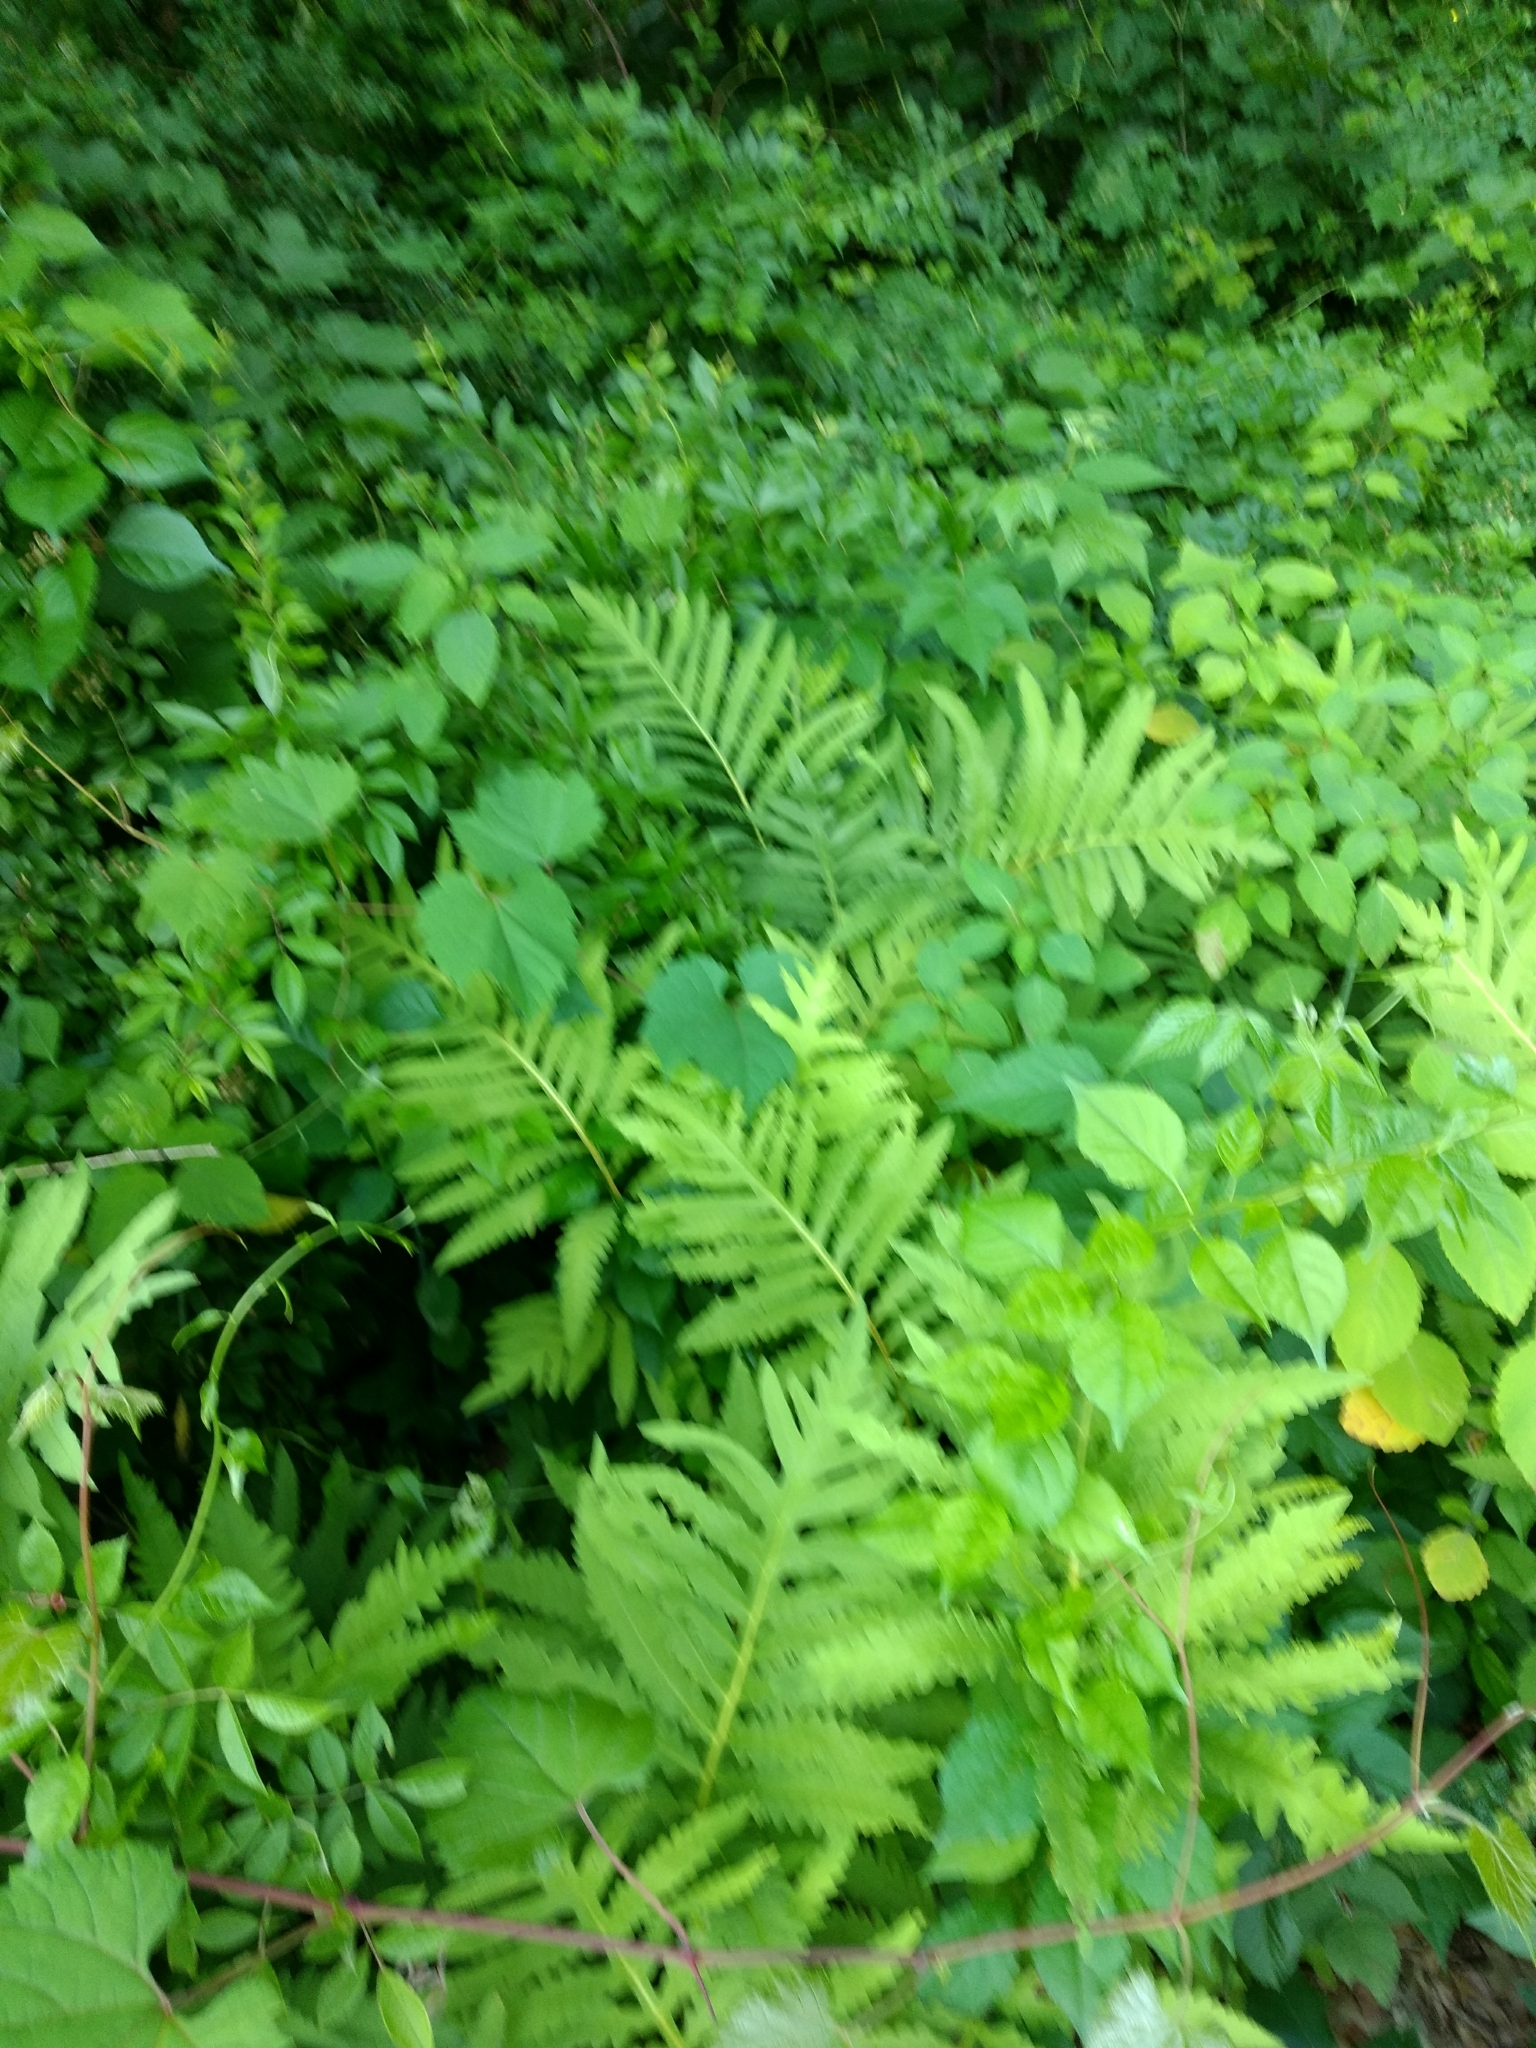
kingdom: Plantae
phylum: Tracheophyta
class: Polypodiopsida
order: Polypodiales
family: Onocleaceae
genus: Onoclea
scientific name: Onoclea sensibilis
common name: Sensitive fern
